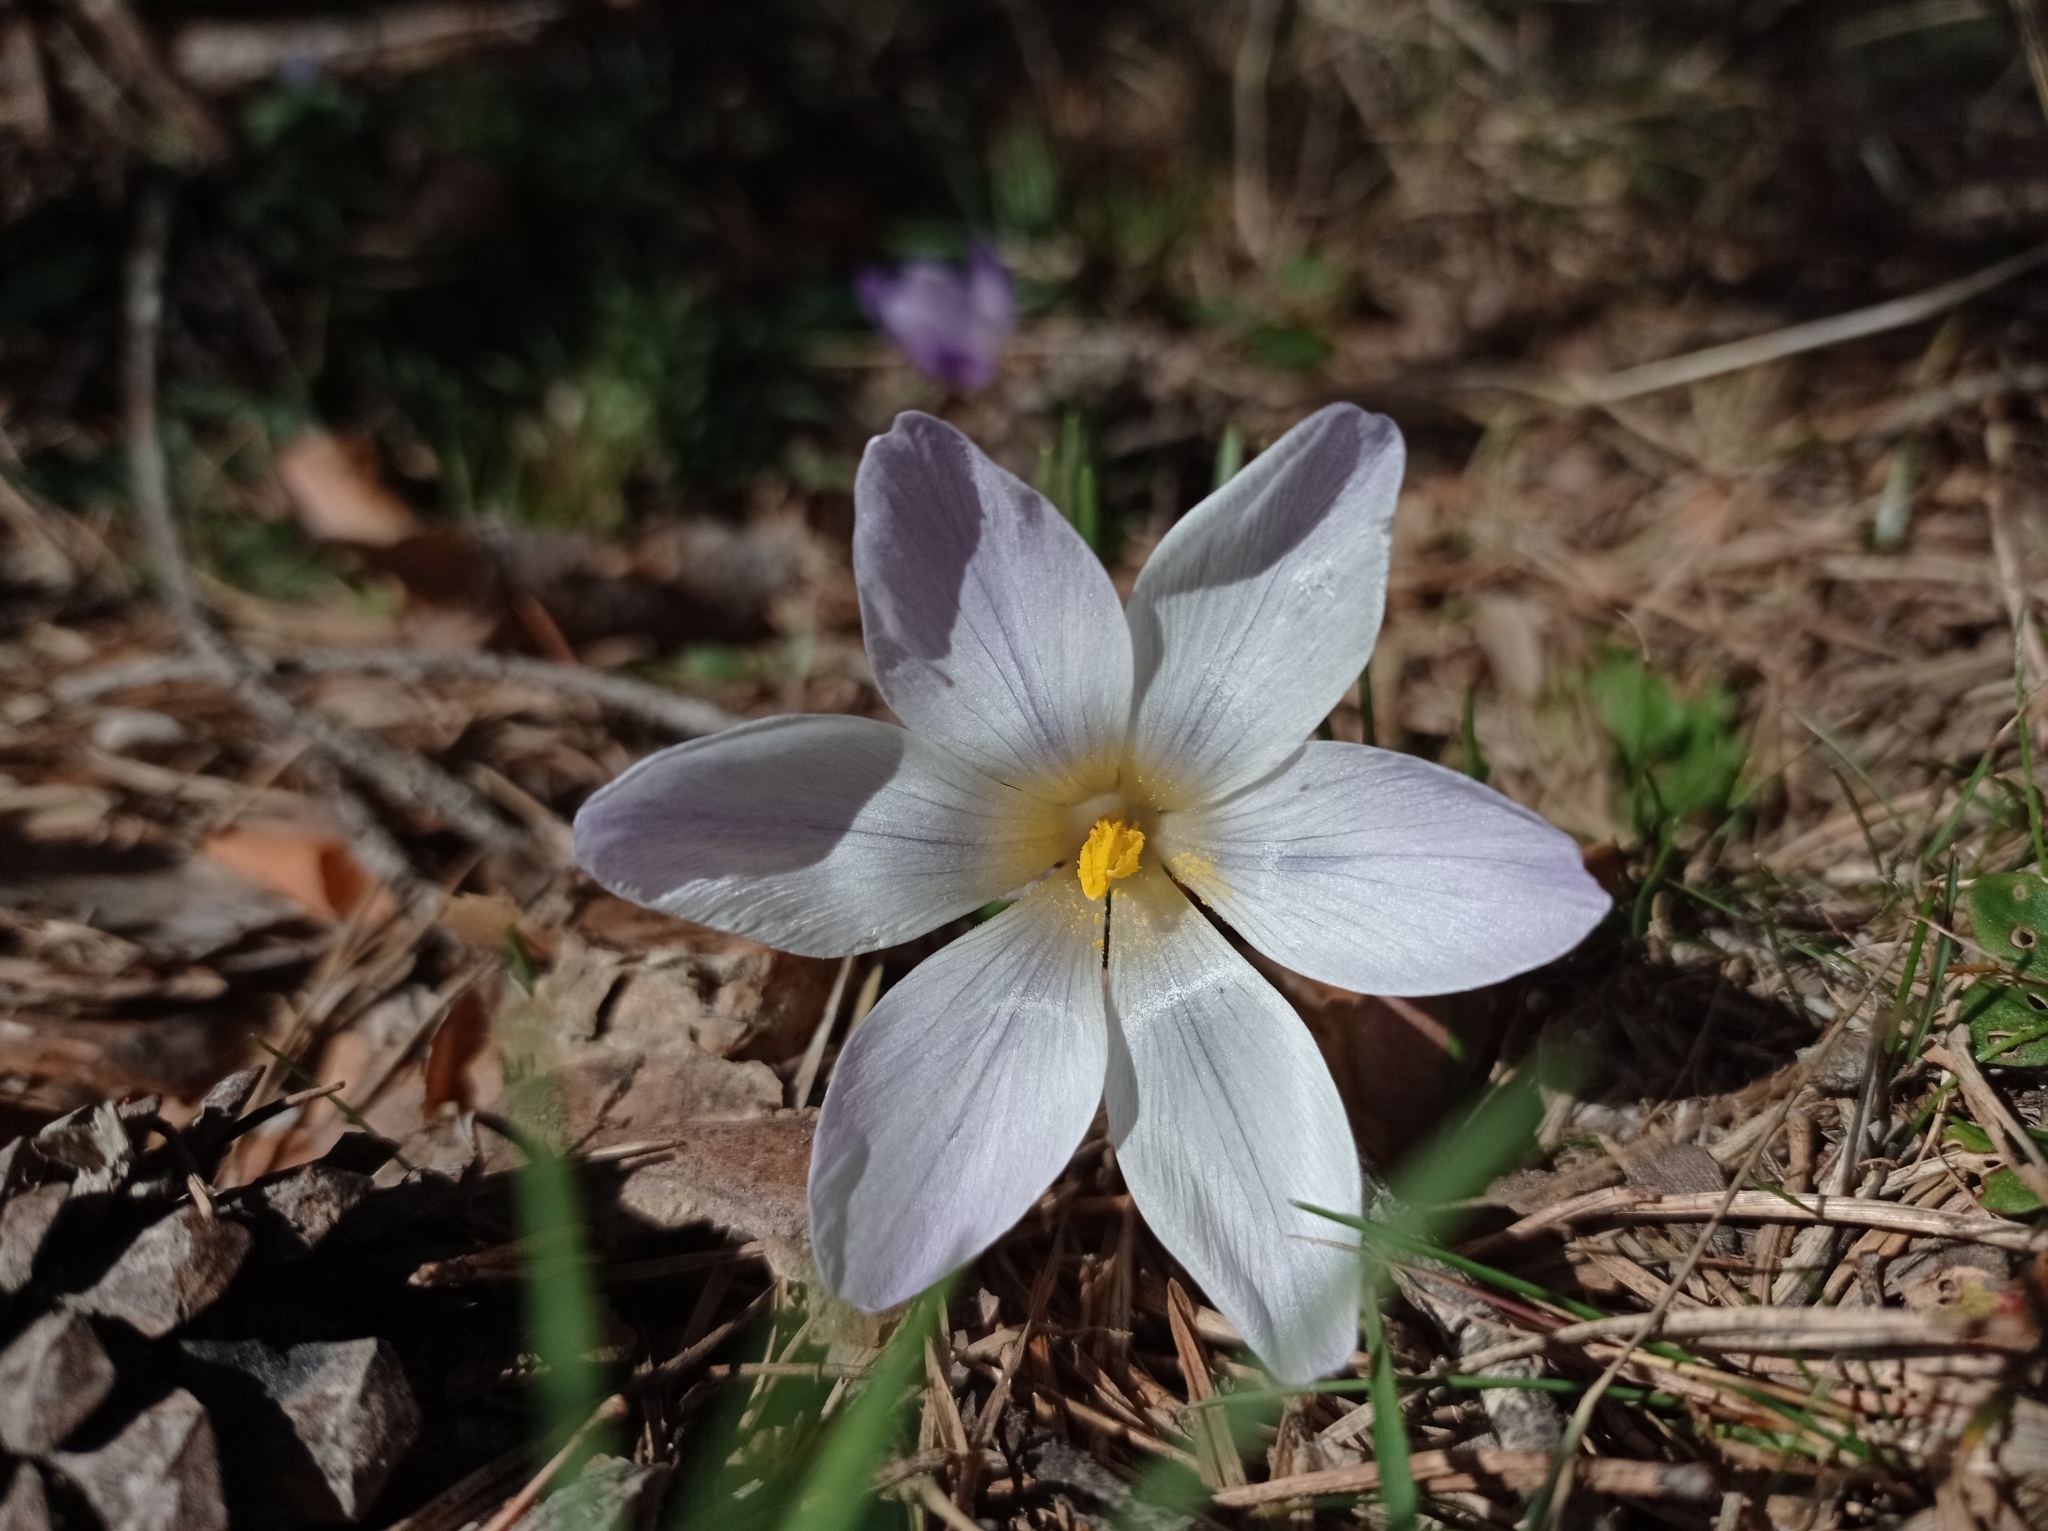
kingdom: Plantae
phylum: Tracheophyta
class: Liliopsida
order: Asparagales
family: Iridaceae
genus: Crocus
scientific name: Crocus carpetanus
